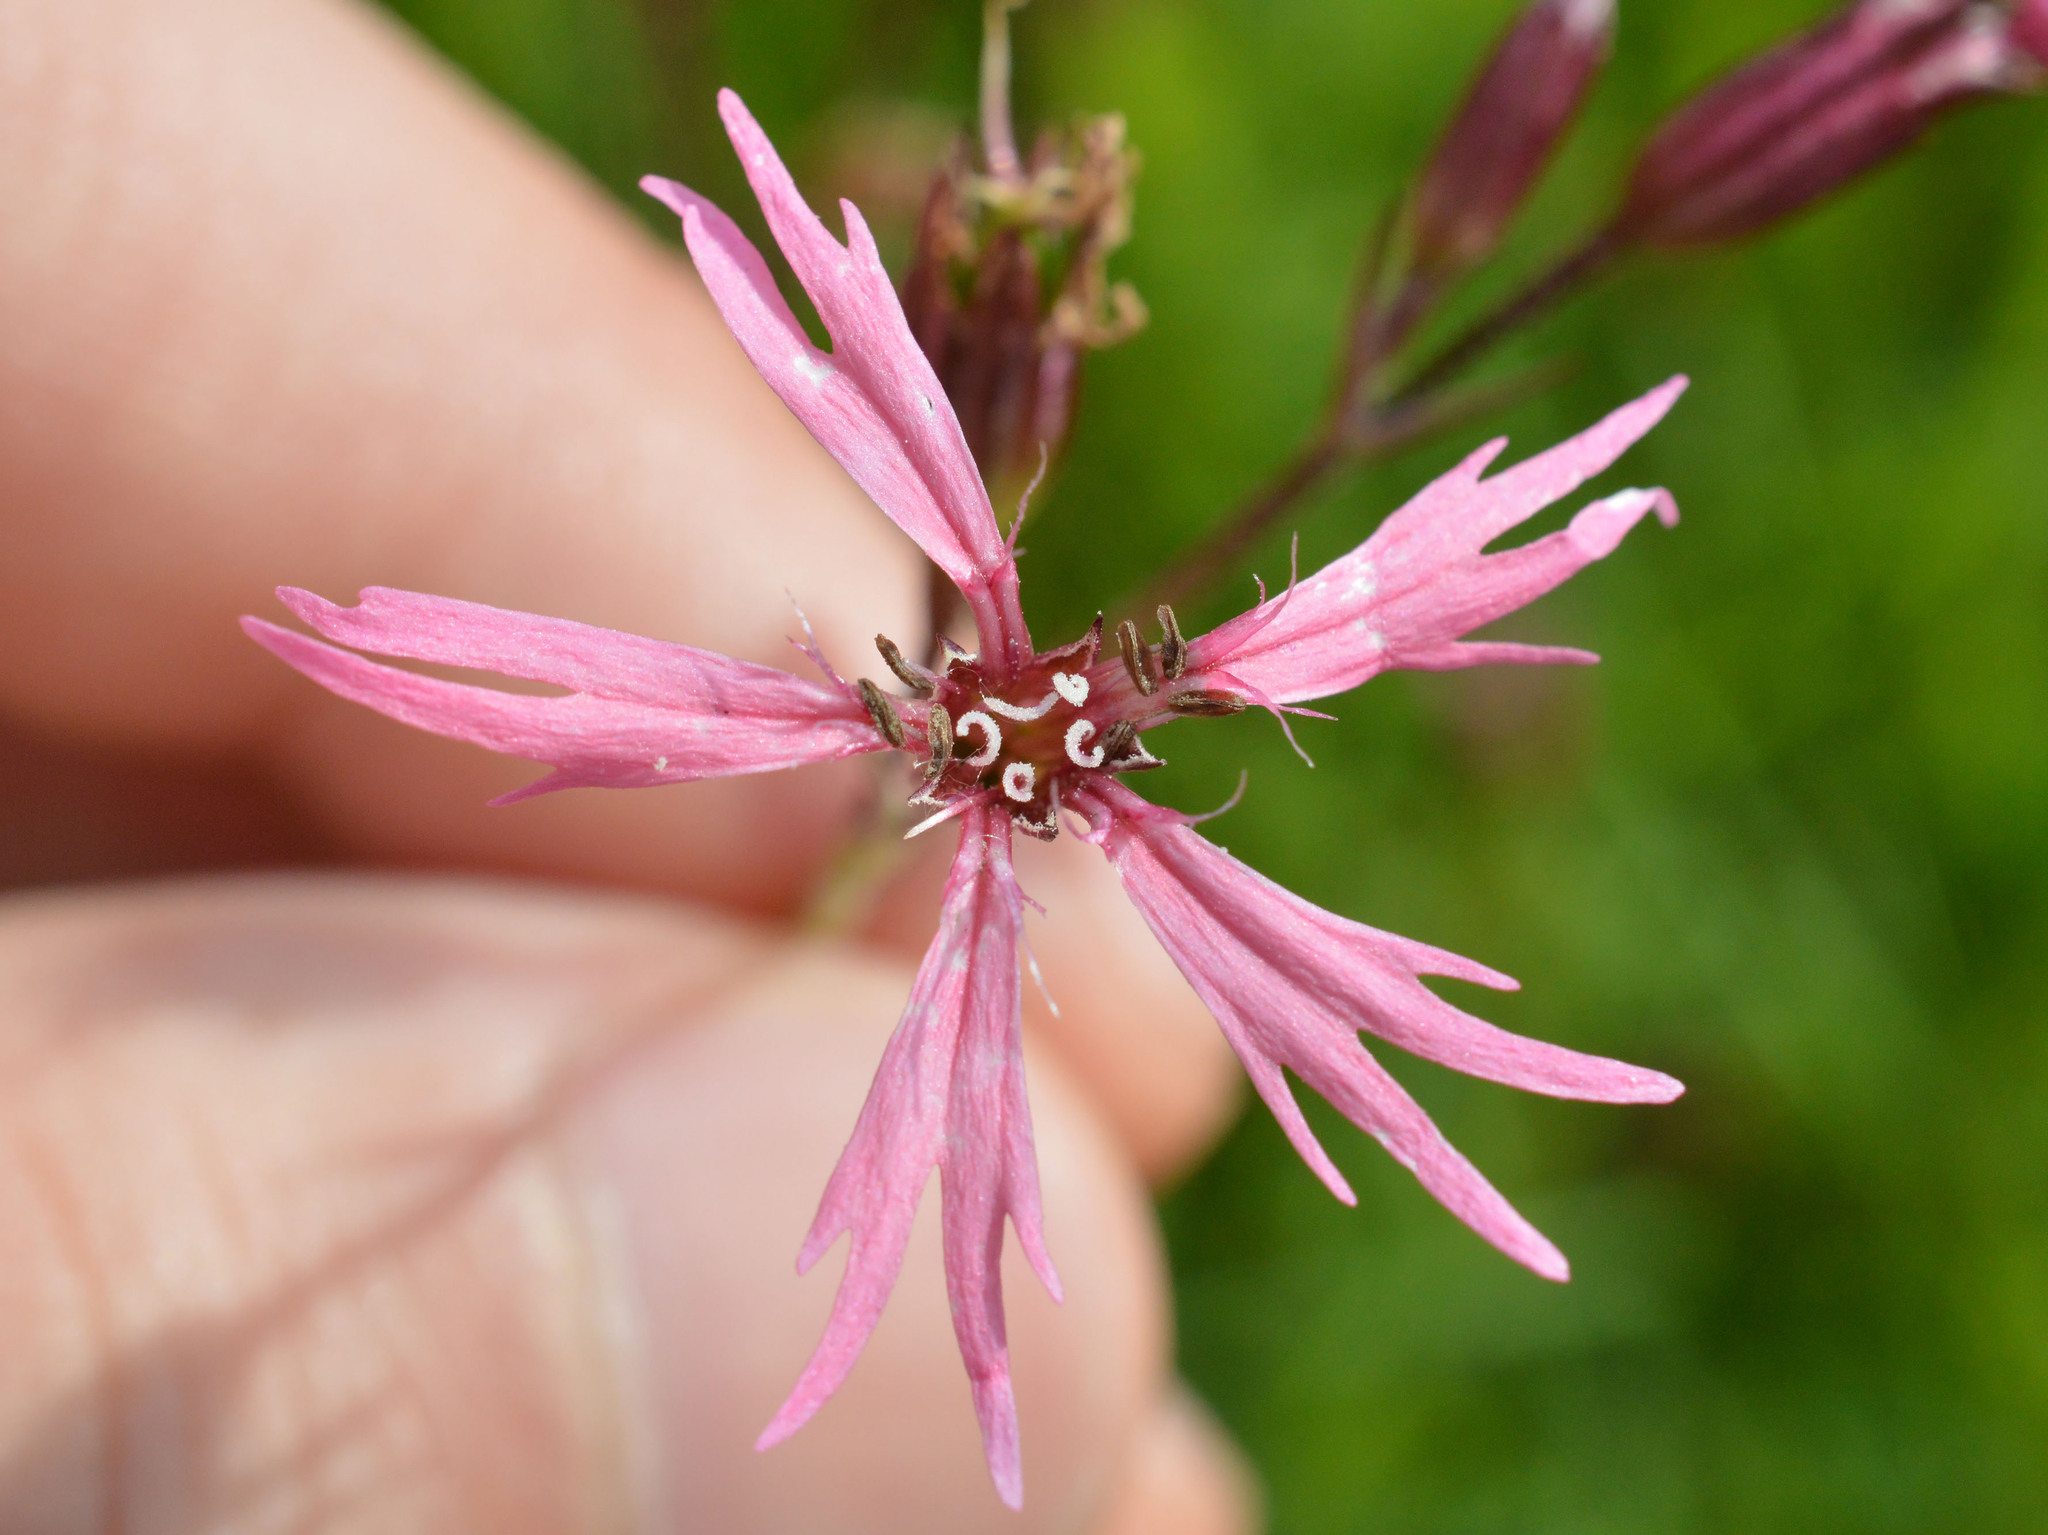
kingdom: Plantae
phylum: Tracheophyta
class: Magnoliopsida
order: Caryophyllales
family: Caryophyllaceae
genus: Silene
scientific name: Silene flos-cuculi
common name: Ragged-robin
